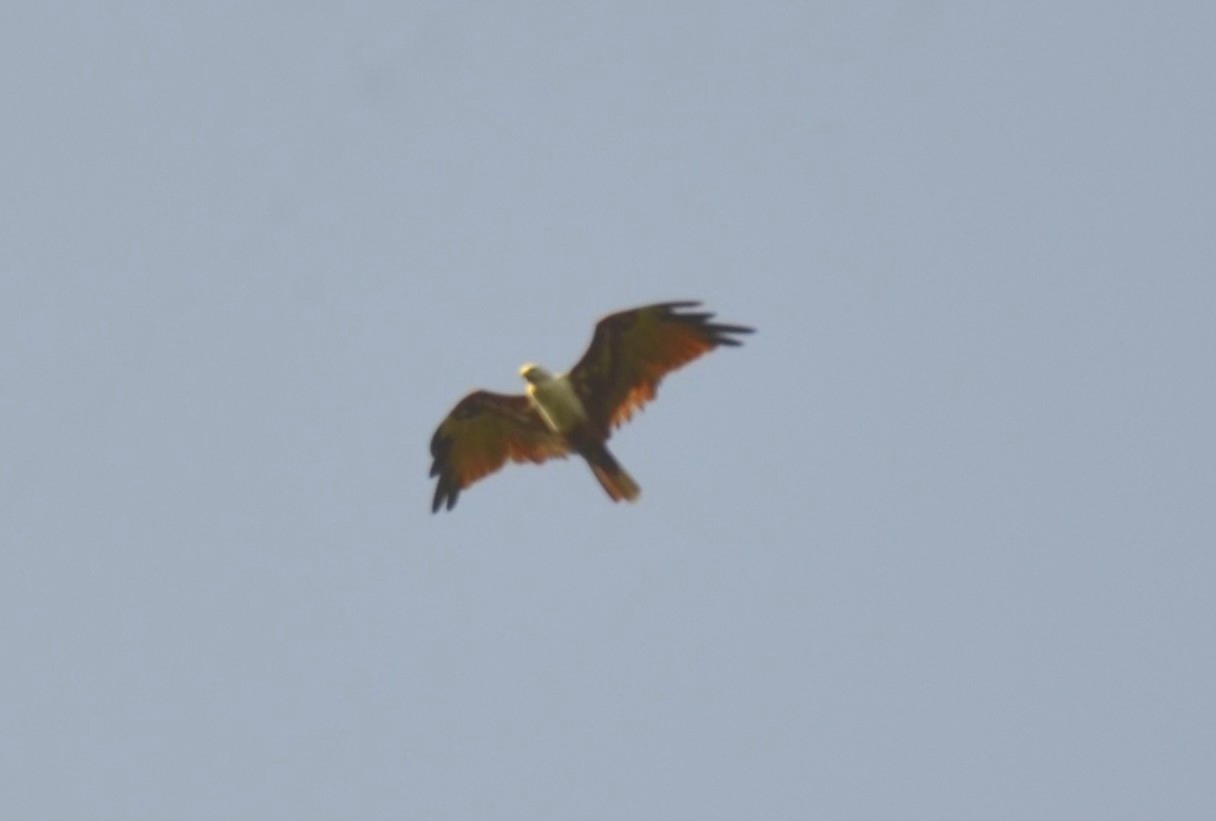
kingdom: Animalia
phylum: Chordata
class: Aves
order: Accipitriformes
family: Accipitridae
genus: Haliastur
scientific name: Haliastur indus
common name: Brahminy kite
